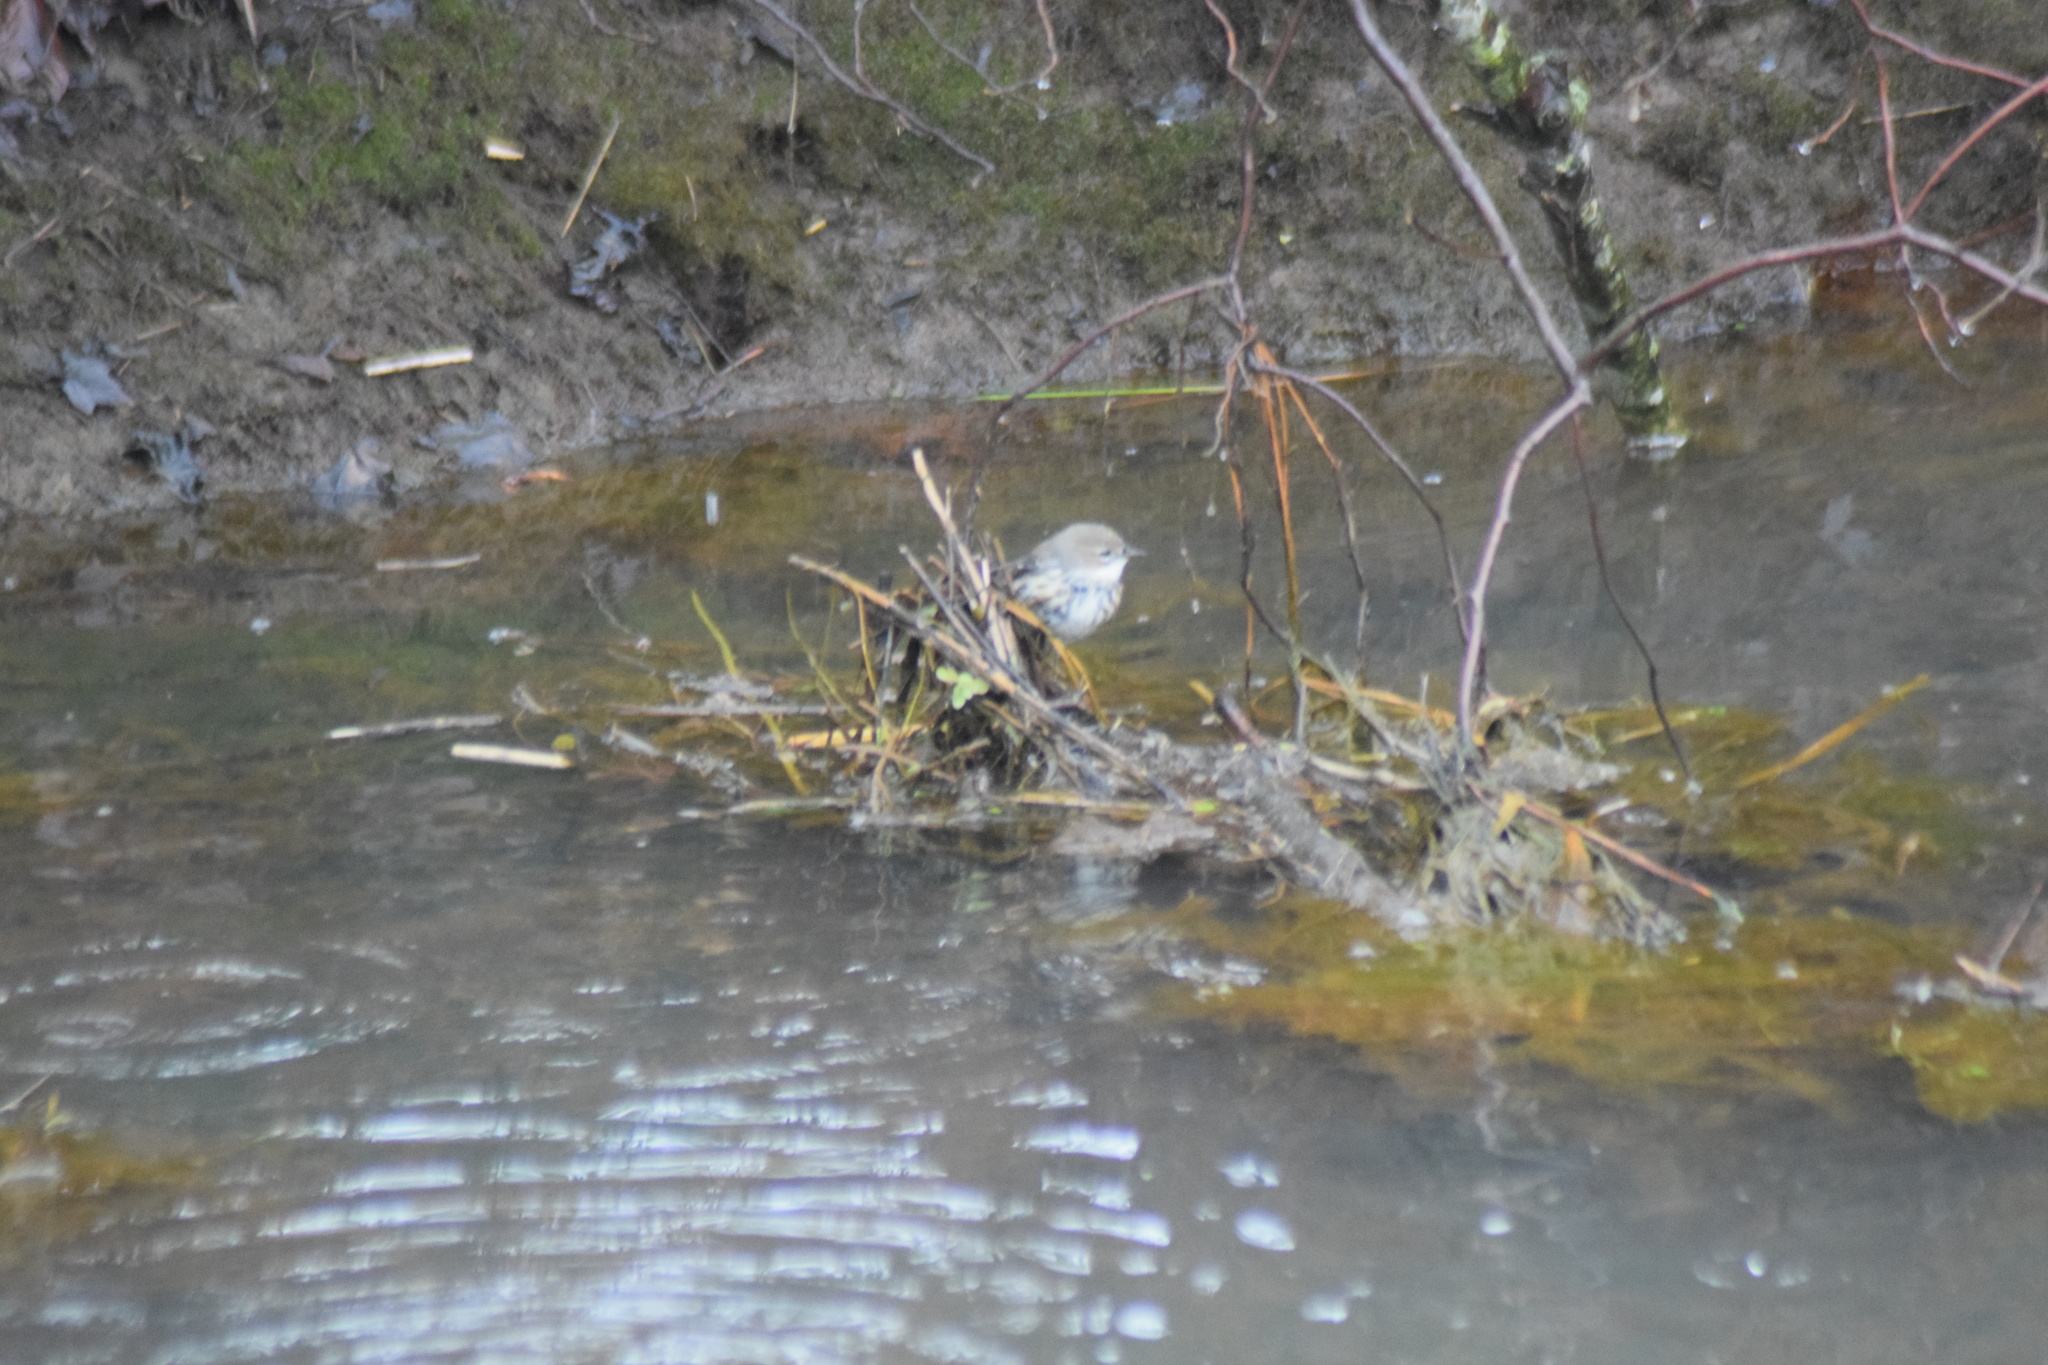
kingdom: Animalia
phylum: Chordata
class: Aves
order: Passeriformes
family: Parulidae
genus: Setophaga
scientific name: Setophaga coronata
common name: Myrtle warbler
